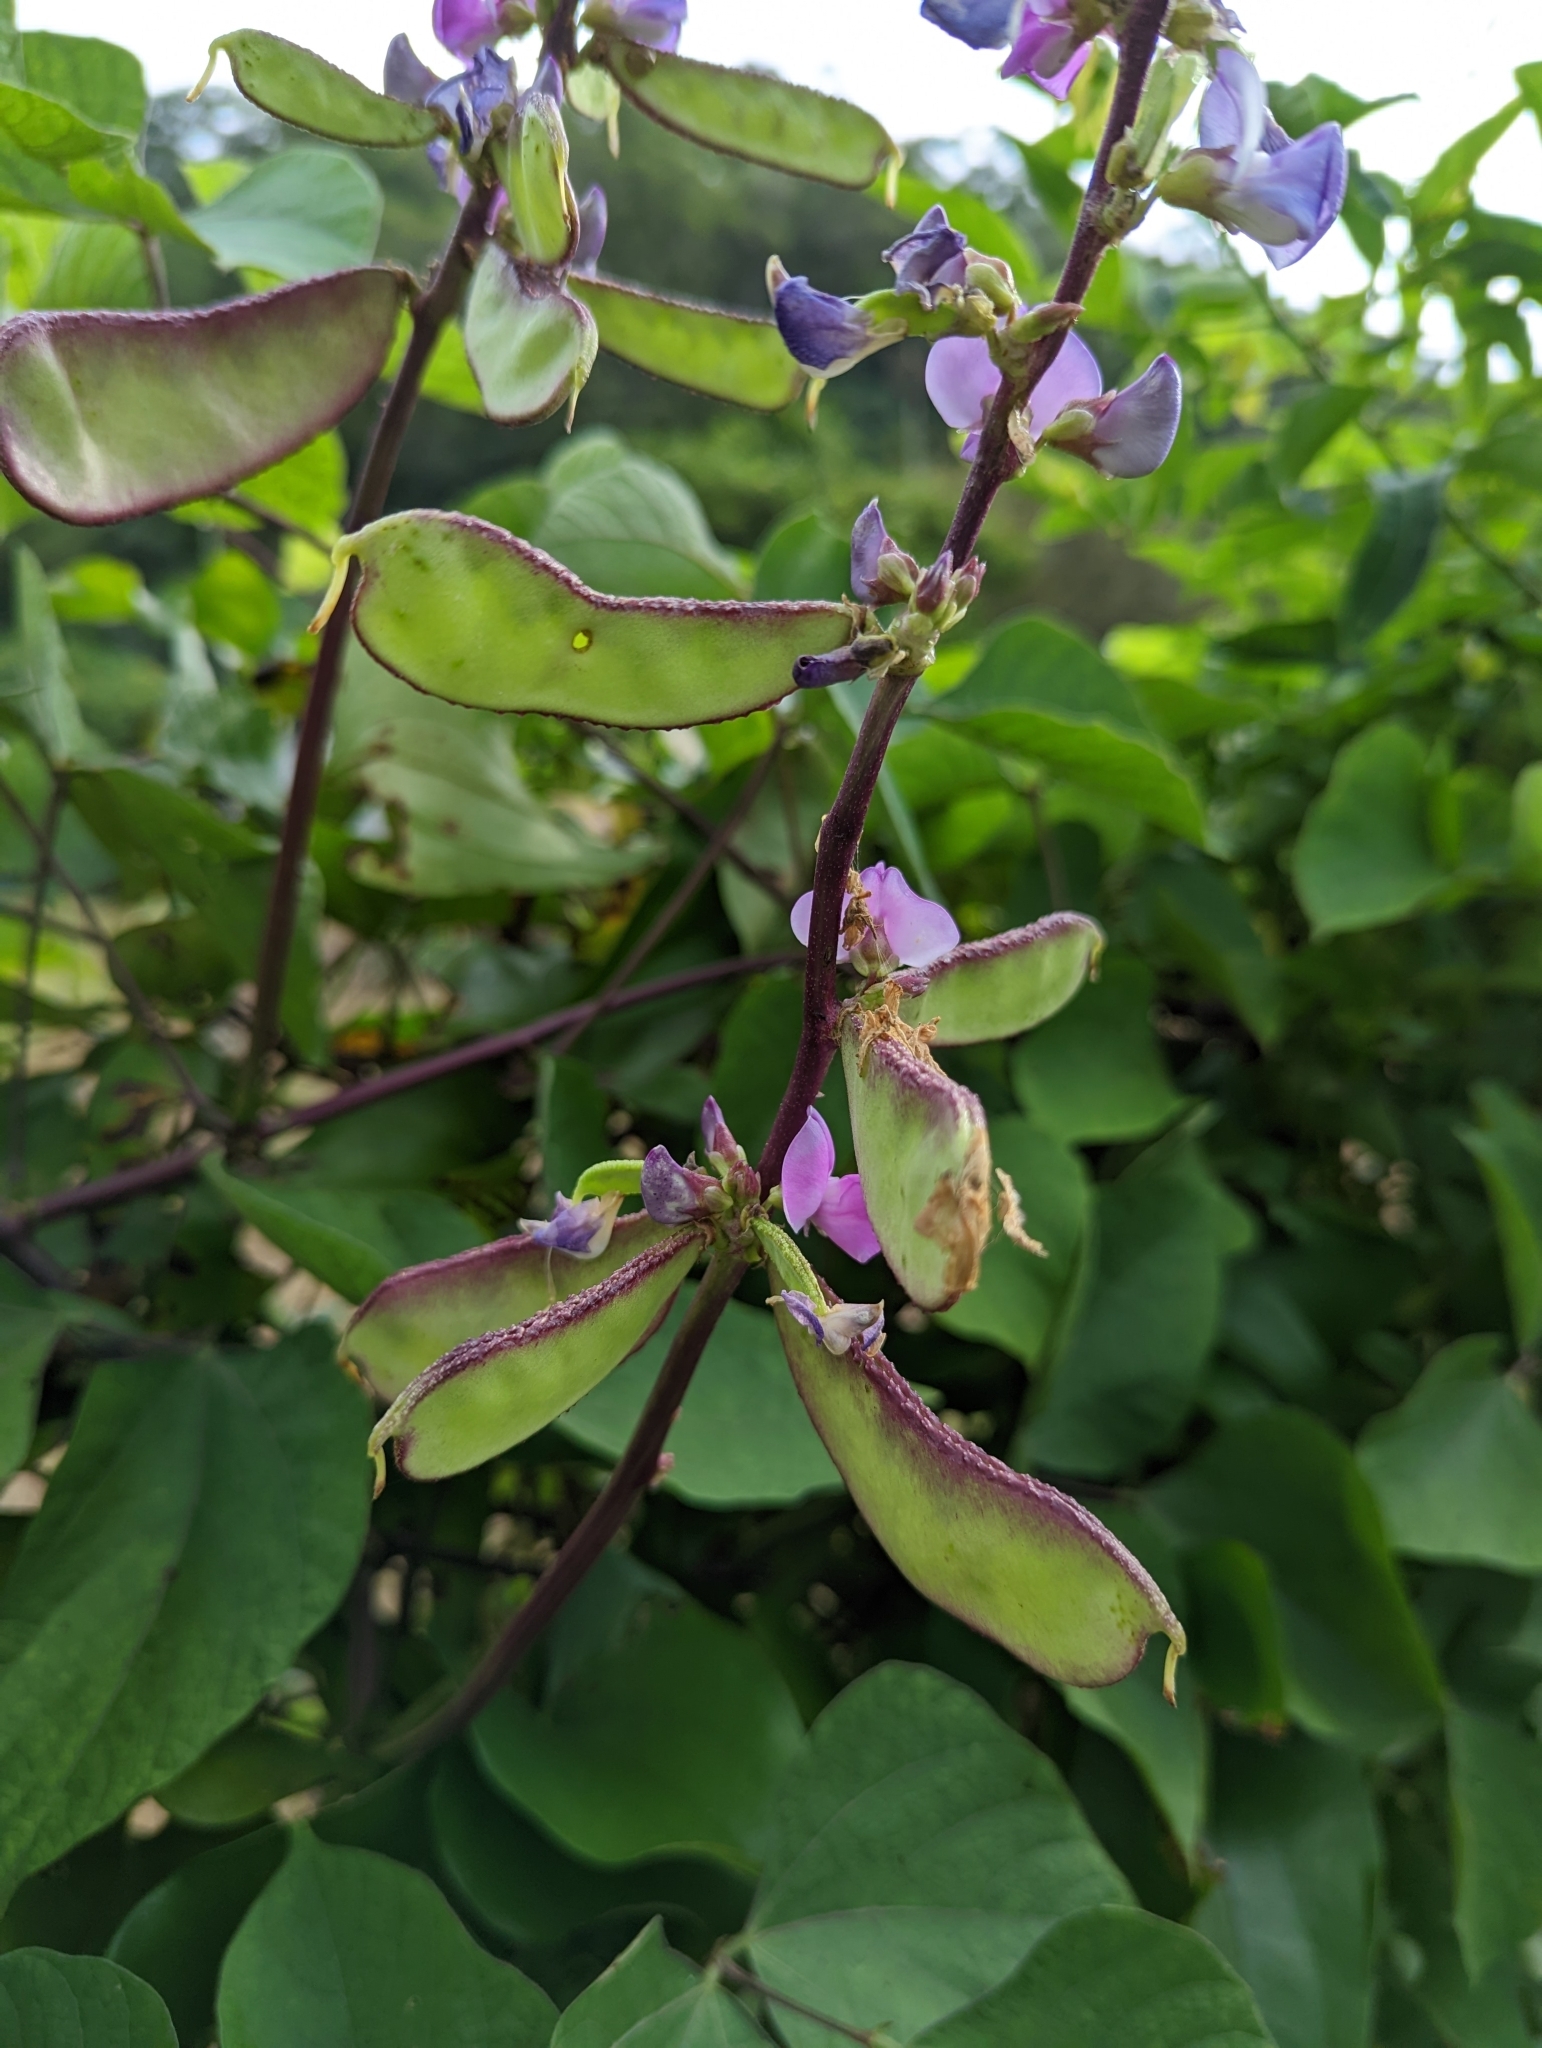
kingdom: Plantae
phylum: Tracheophyta
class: Magnoliopsida
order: Fabales
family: Fabaceae
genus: Lablab
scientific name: Lablab purpureus
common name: Lablab-bean
